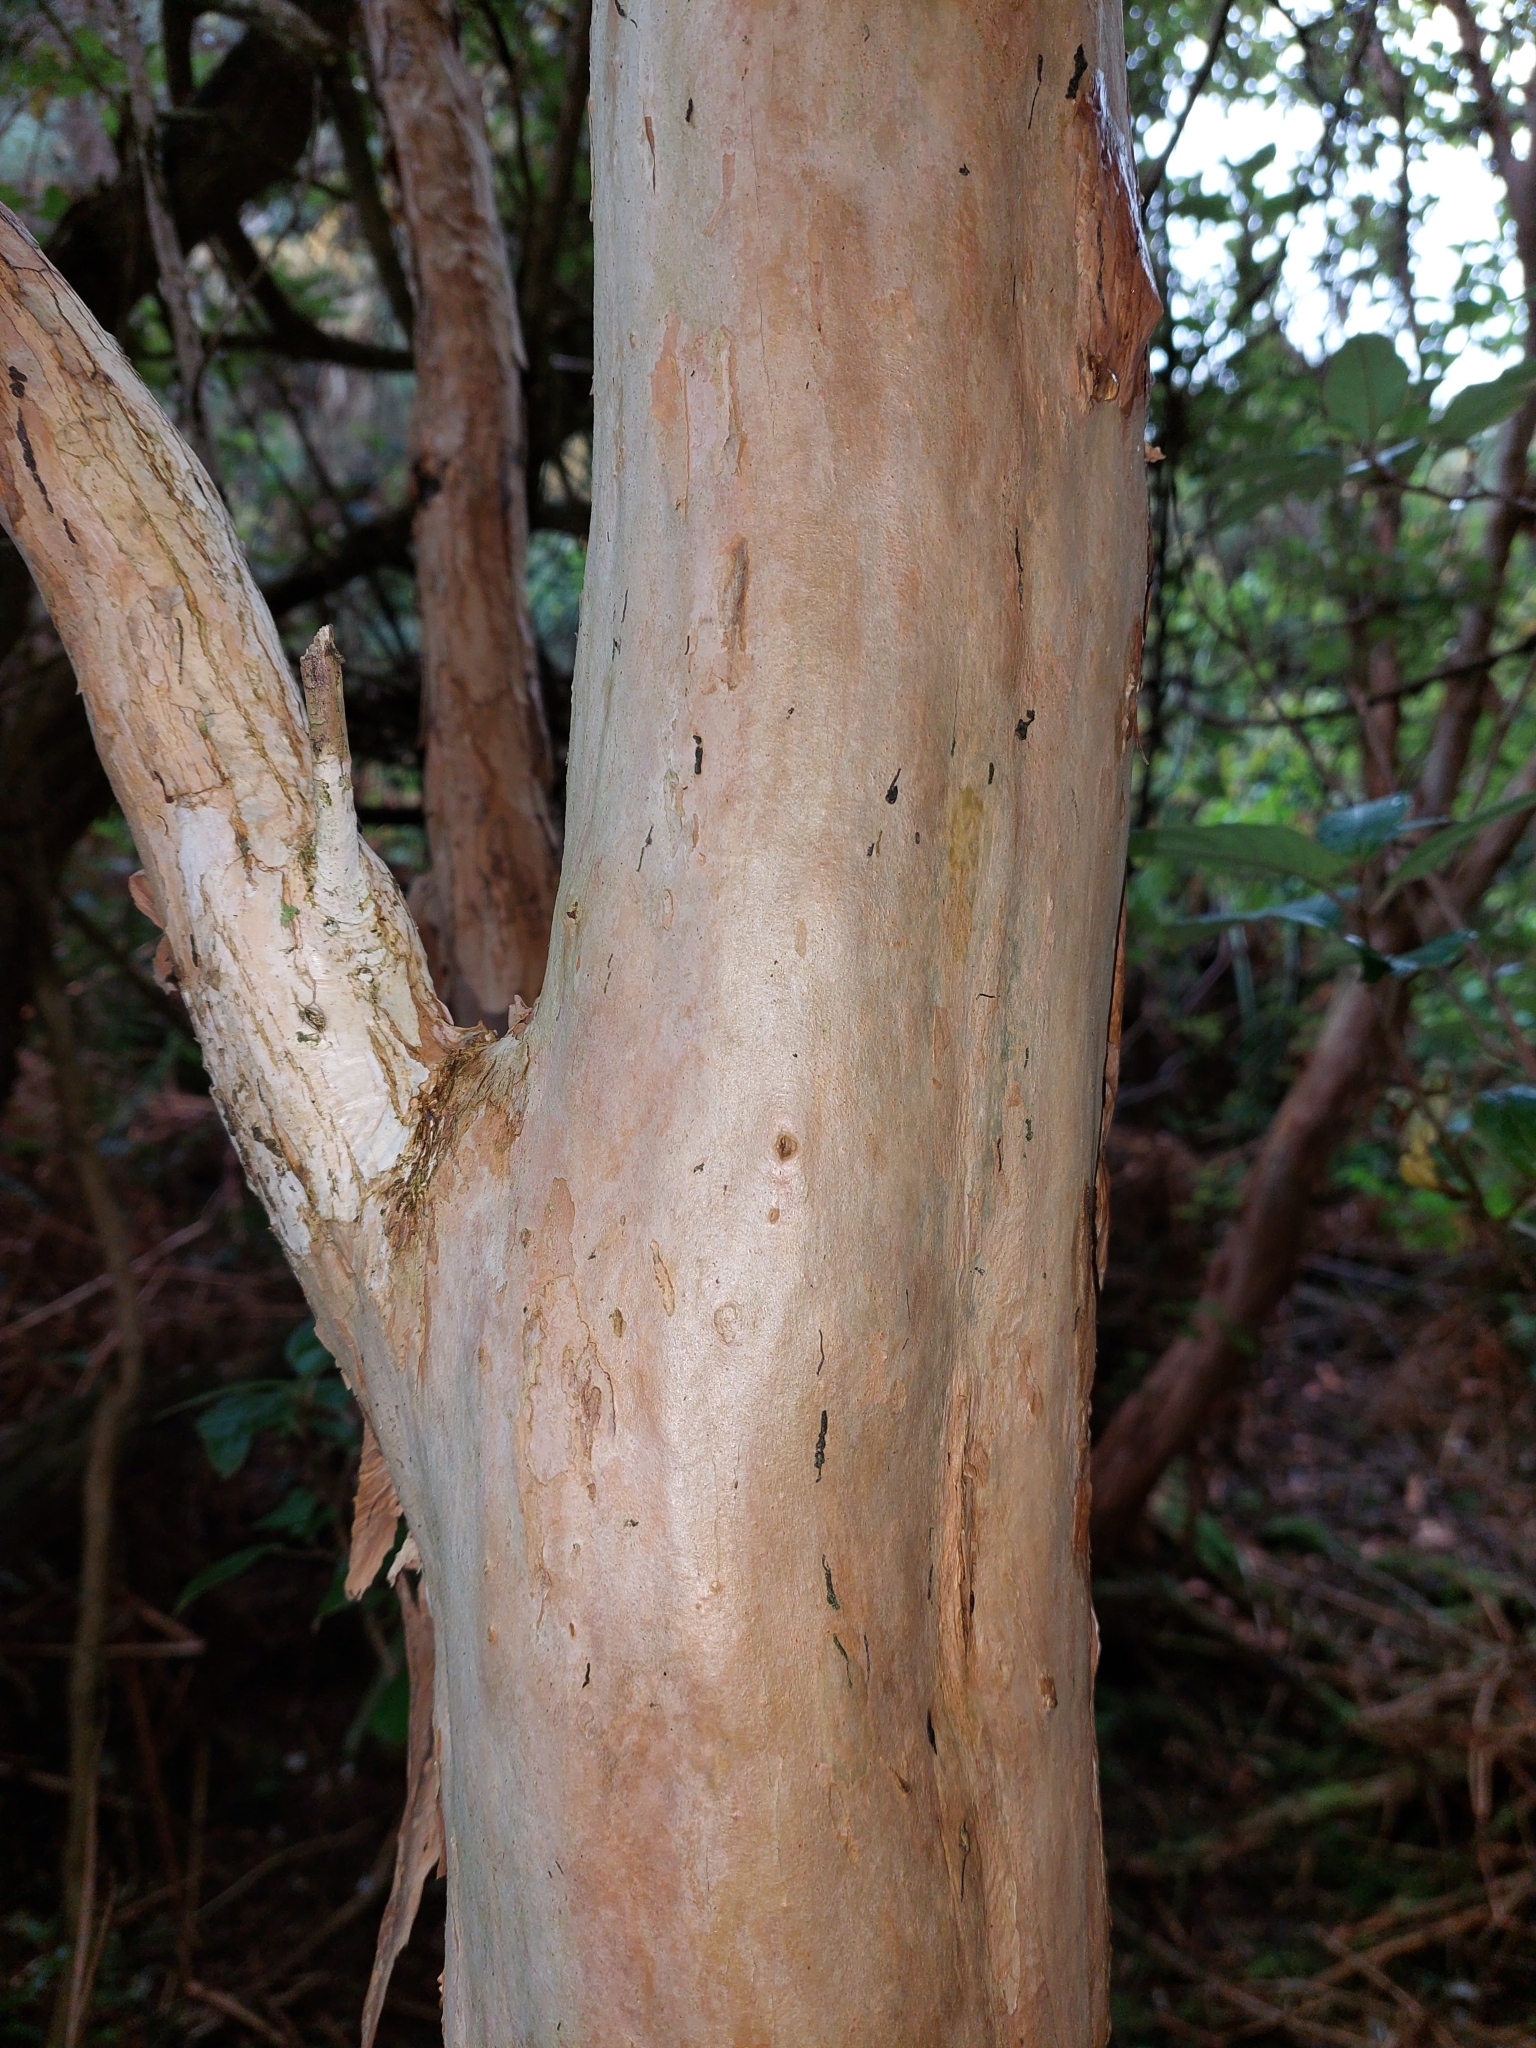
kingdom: Plantae
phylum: Tracheophyta
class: Magnoliopsida
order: Myrtales
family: Onagraceae
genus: Fuchsia
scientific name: Fuchsia excorticata
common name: Tree fuchsia
